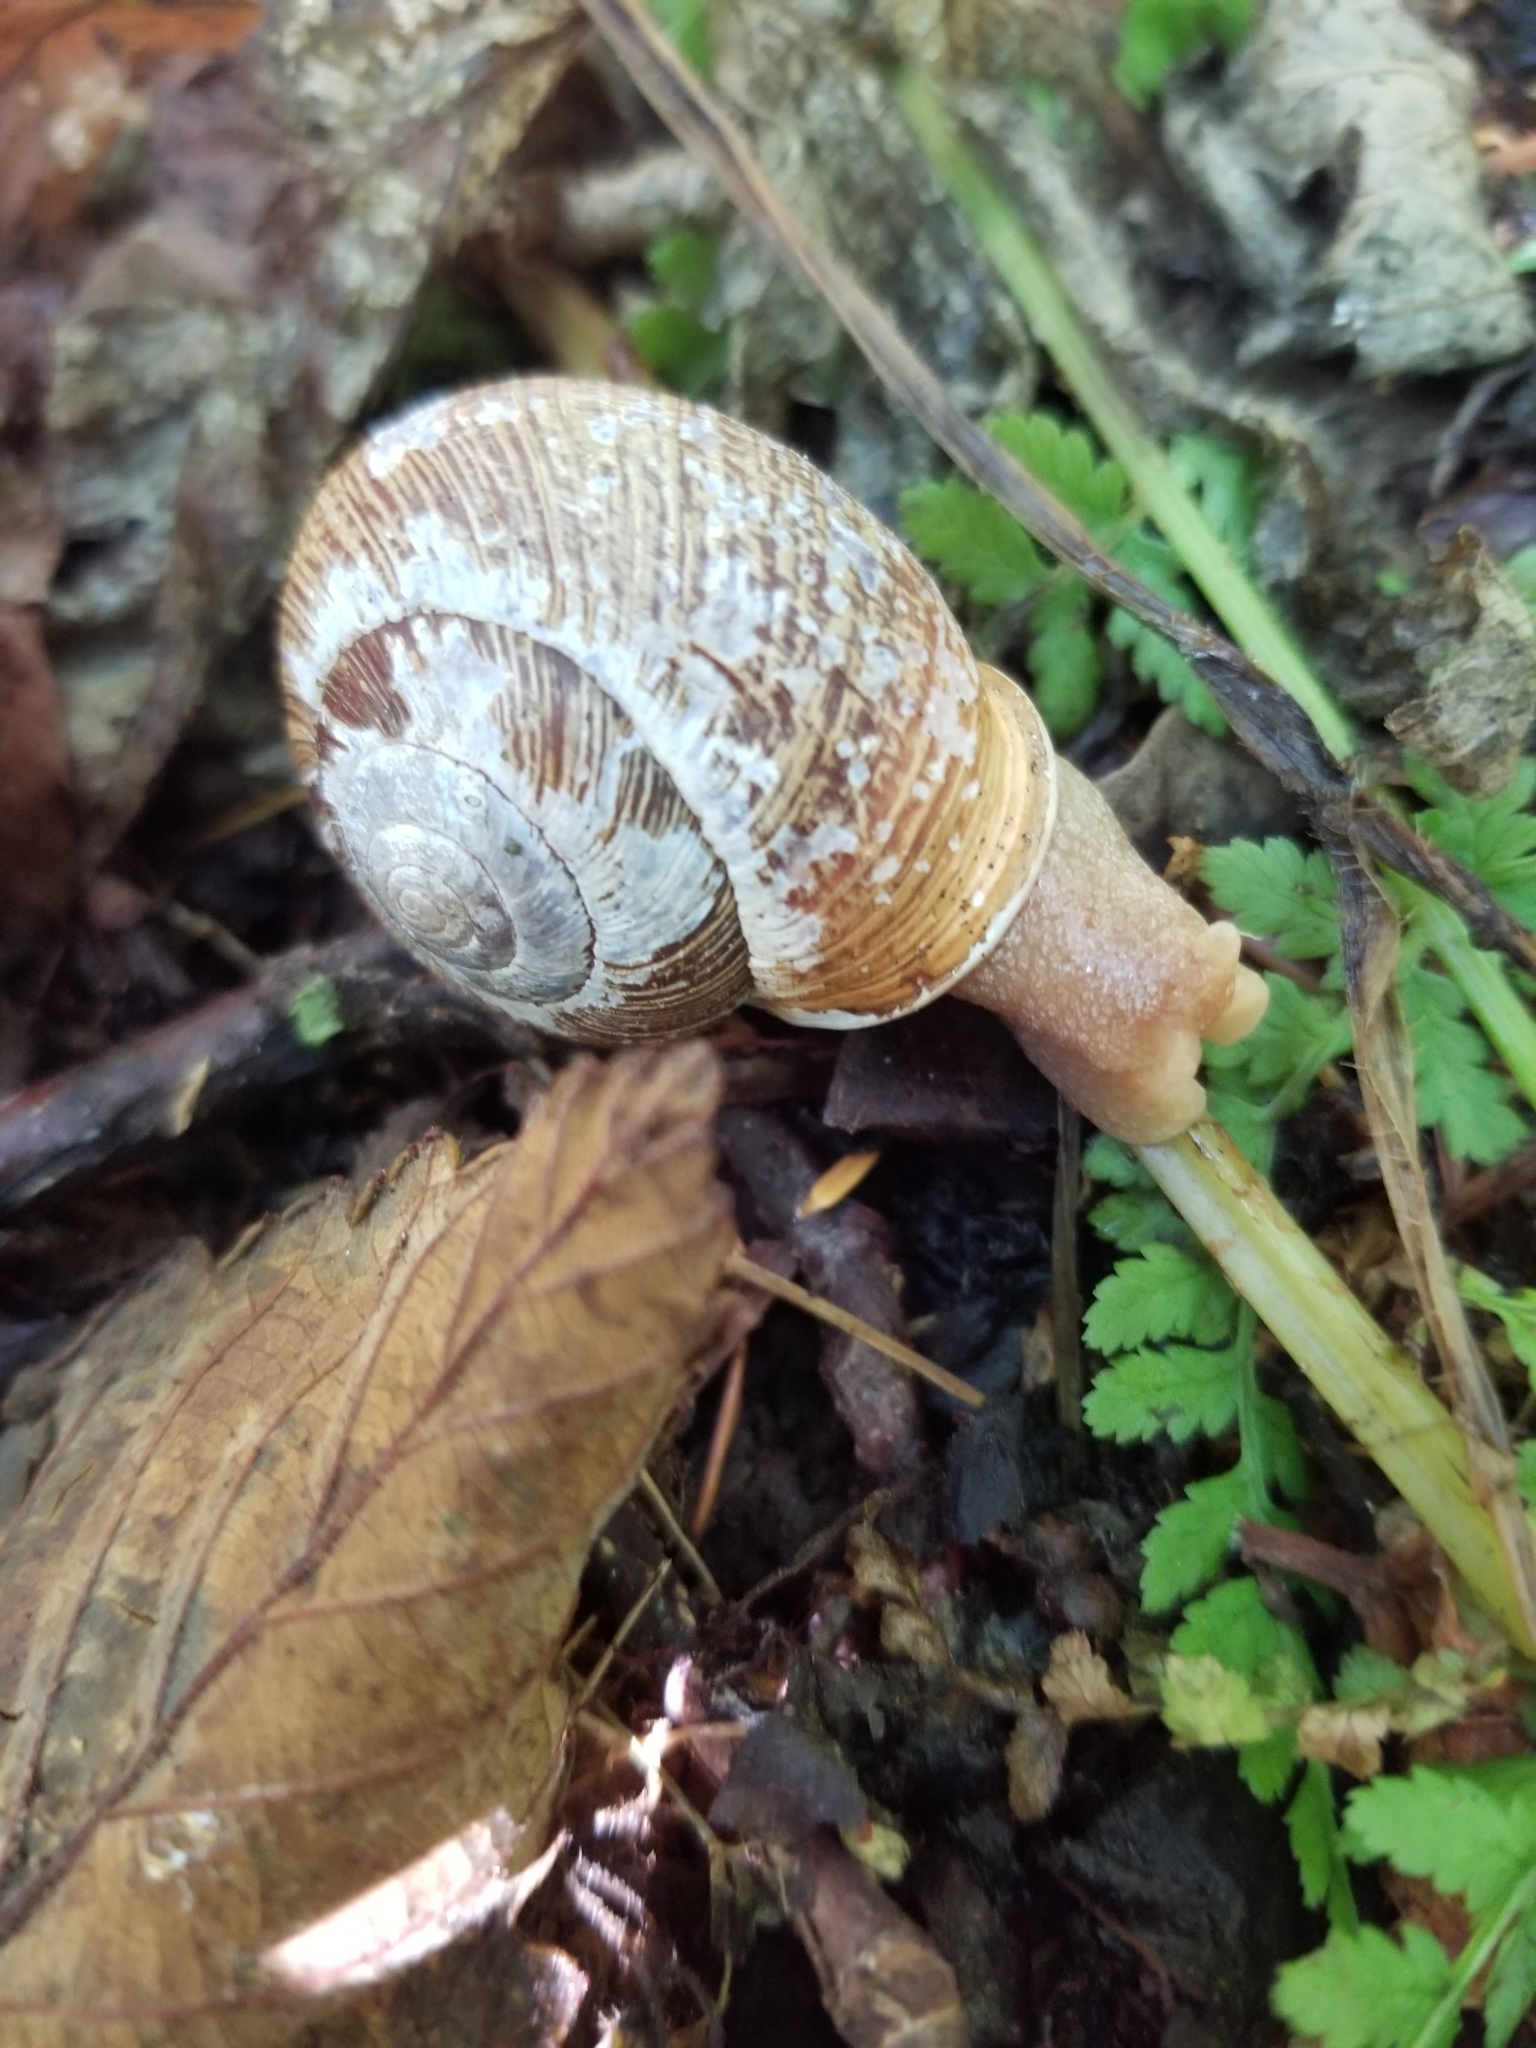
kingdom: Animalia
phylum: Mollusca
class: Gastropoda
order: Stylommatophora
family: Polygyridae
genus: Allogona
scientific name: Allogona townsendiana
